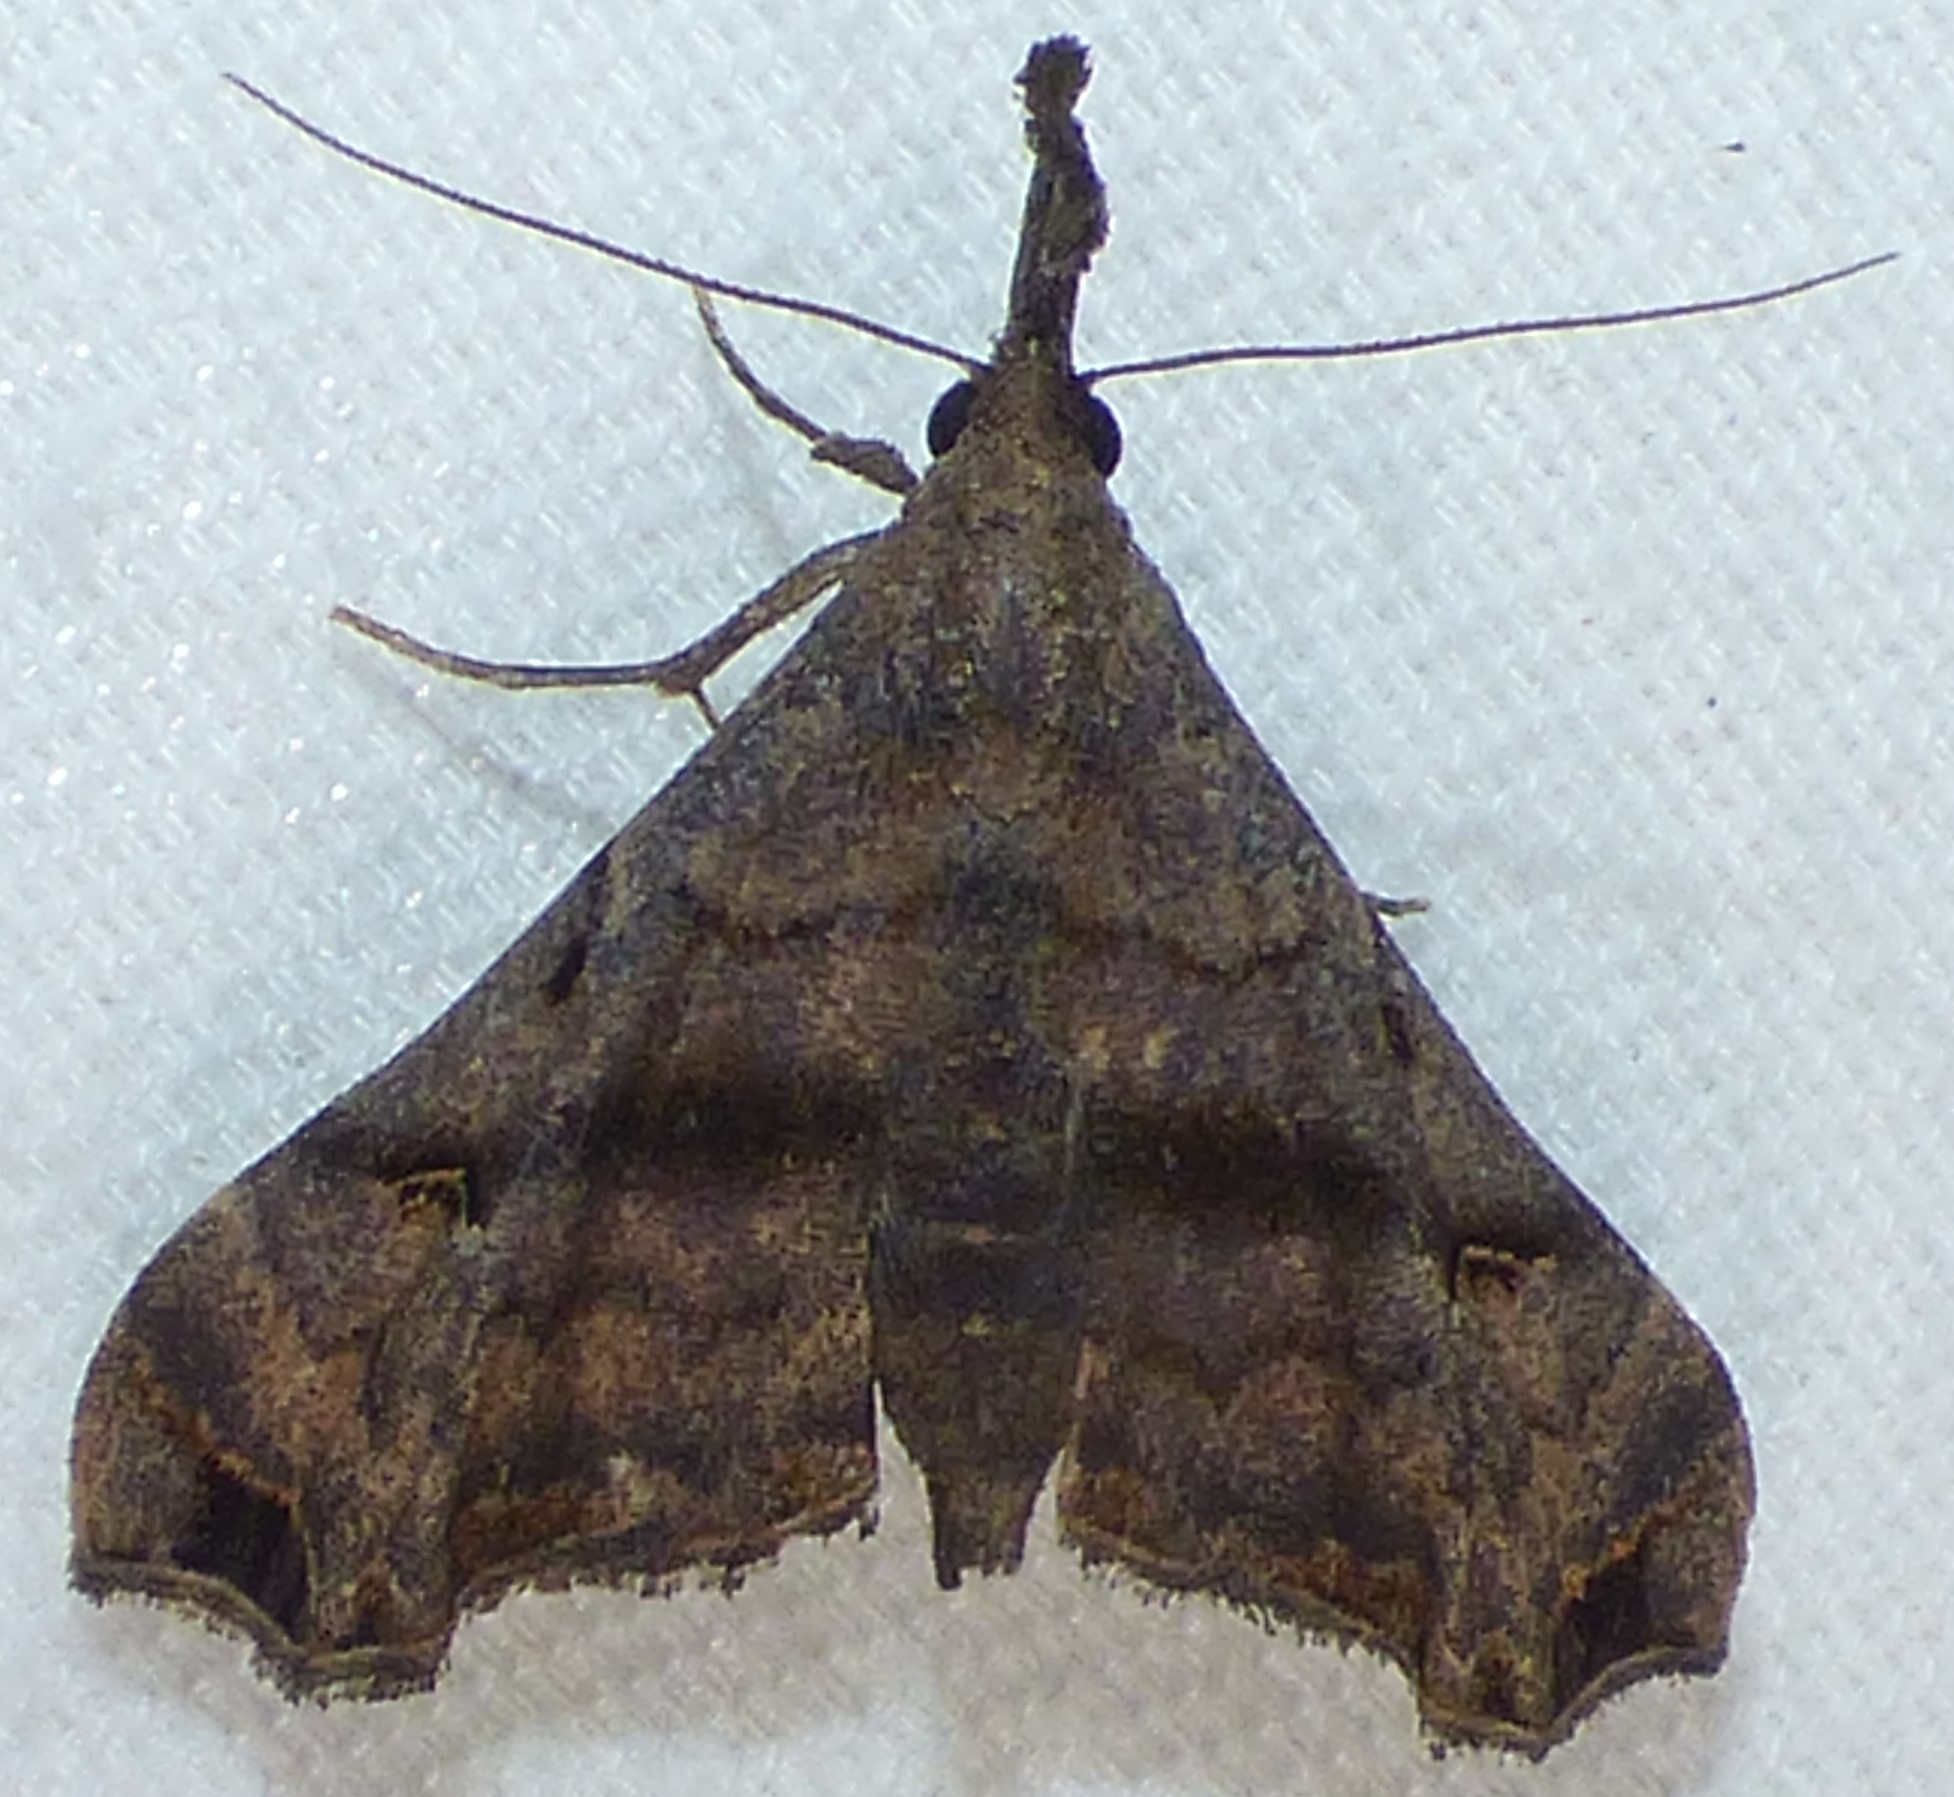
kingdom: Animalia
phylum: Arthropoda
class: Insecta
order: Lepidoptera
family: Erebidae
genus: Palthis
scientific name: Palthis asopialis
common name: Faint-spotted palthis moth
